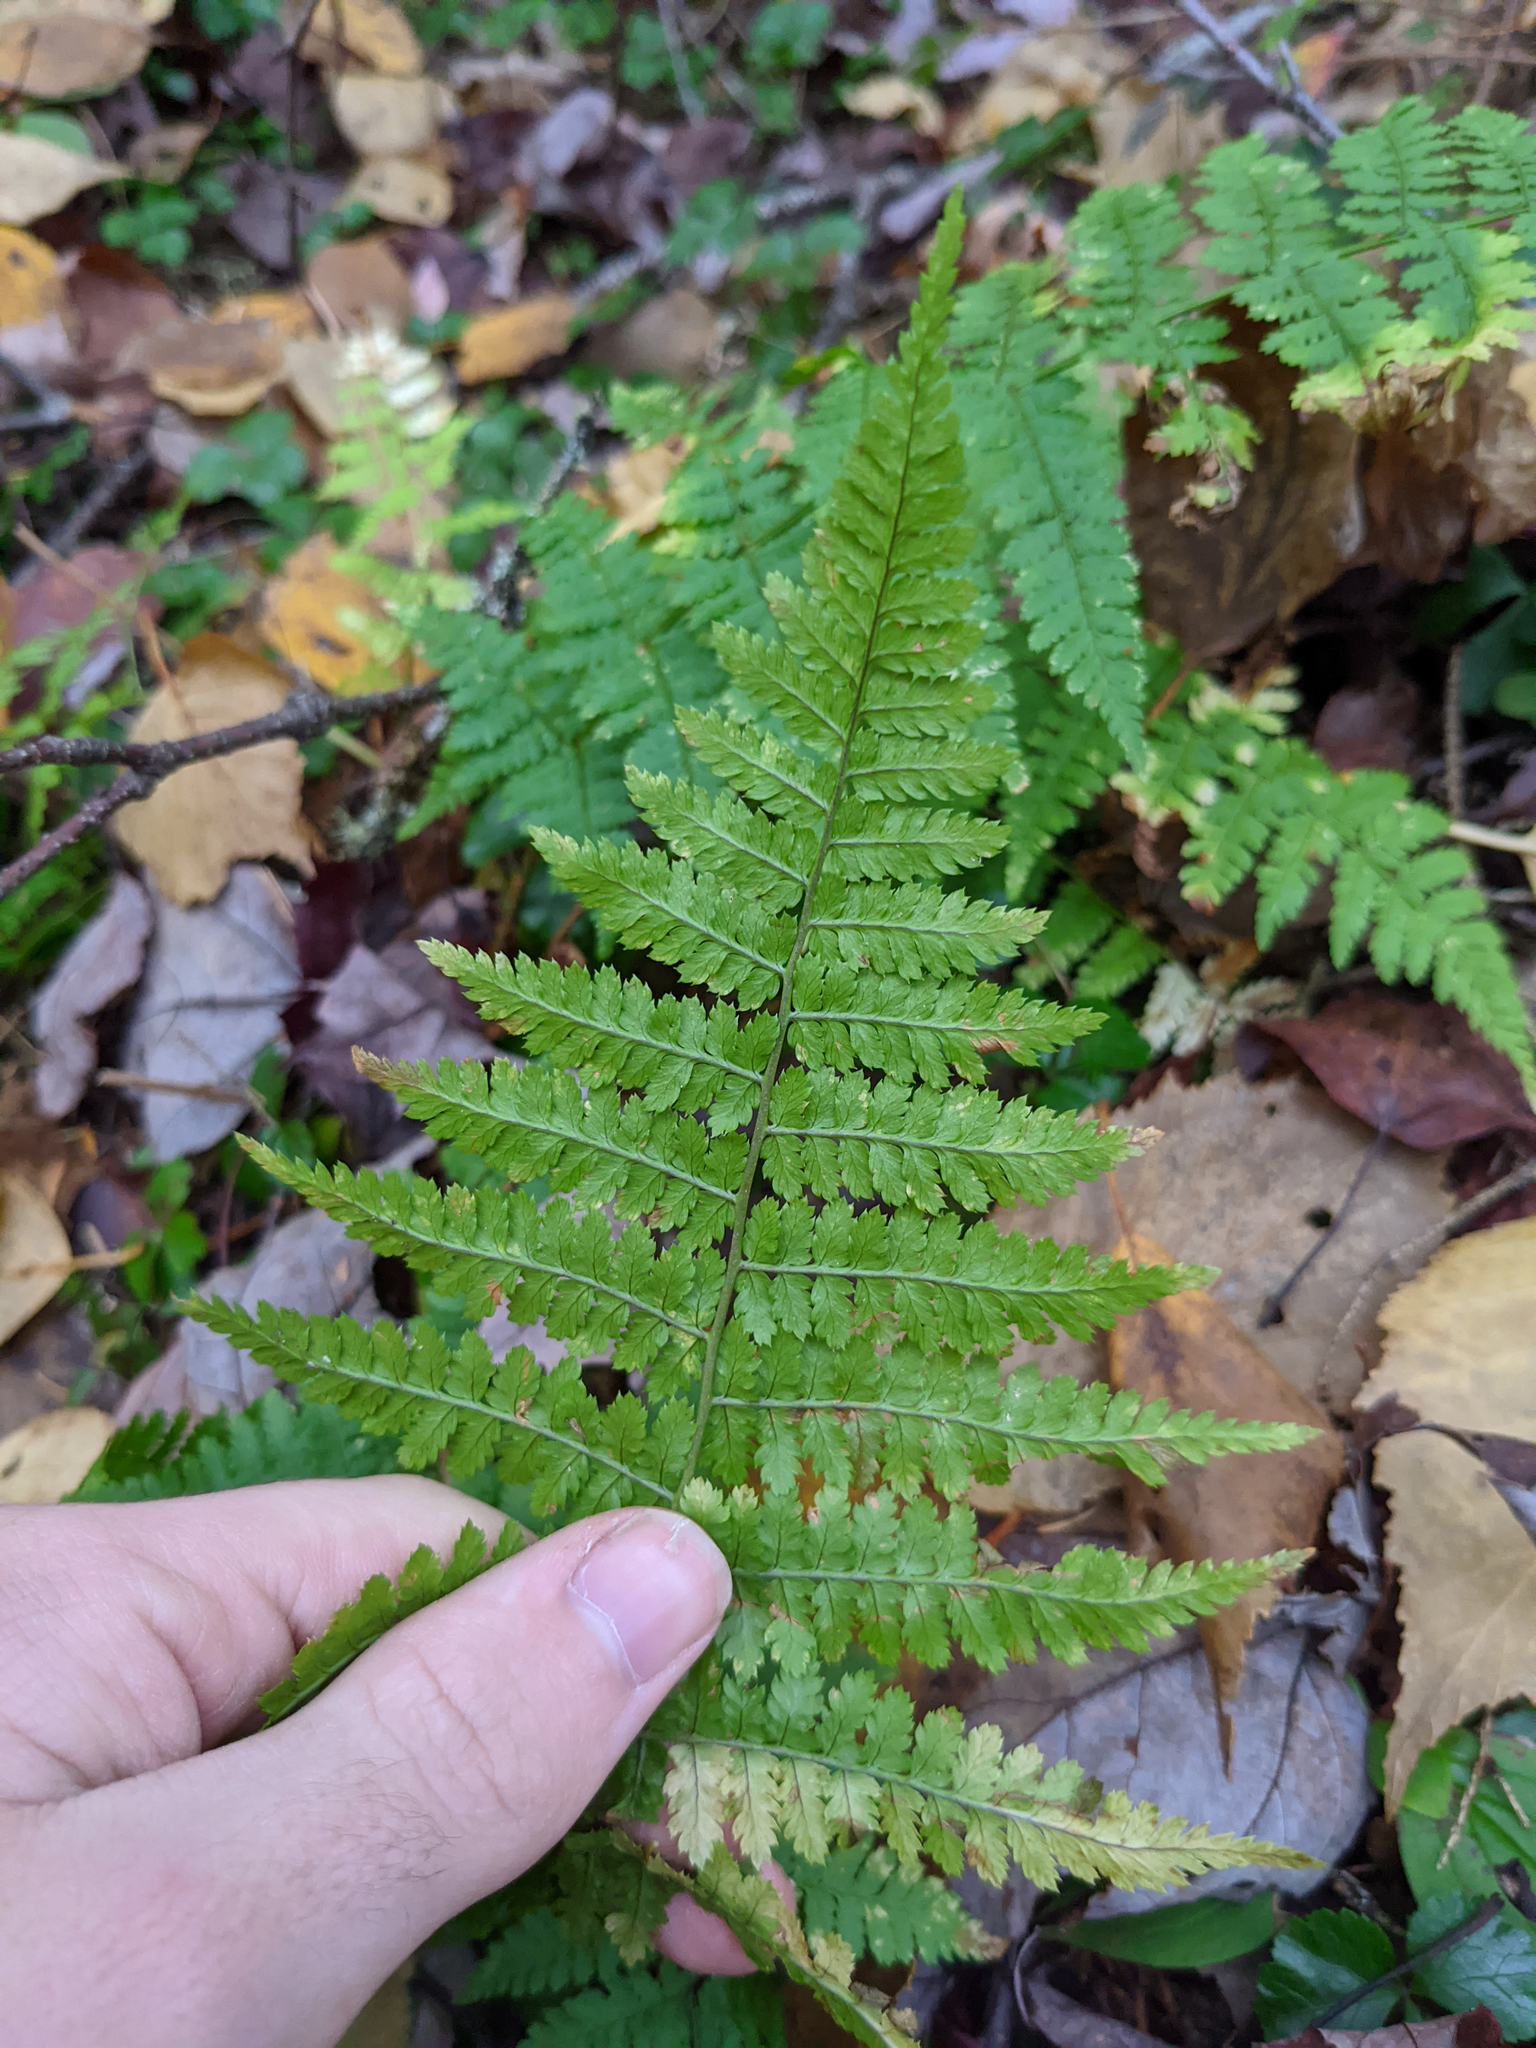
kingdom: Plantae
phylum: Tracheophyta
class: Polypodiopsida
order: Polypodiales
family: Dryopteridaceae
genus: Dryopteris
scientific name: Dryopteris intermedia
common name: Evergreen wood fern
